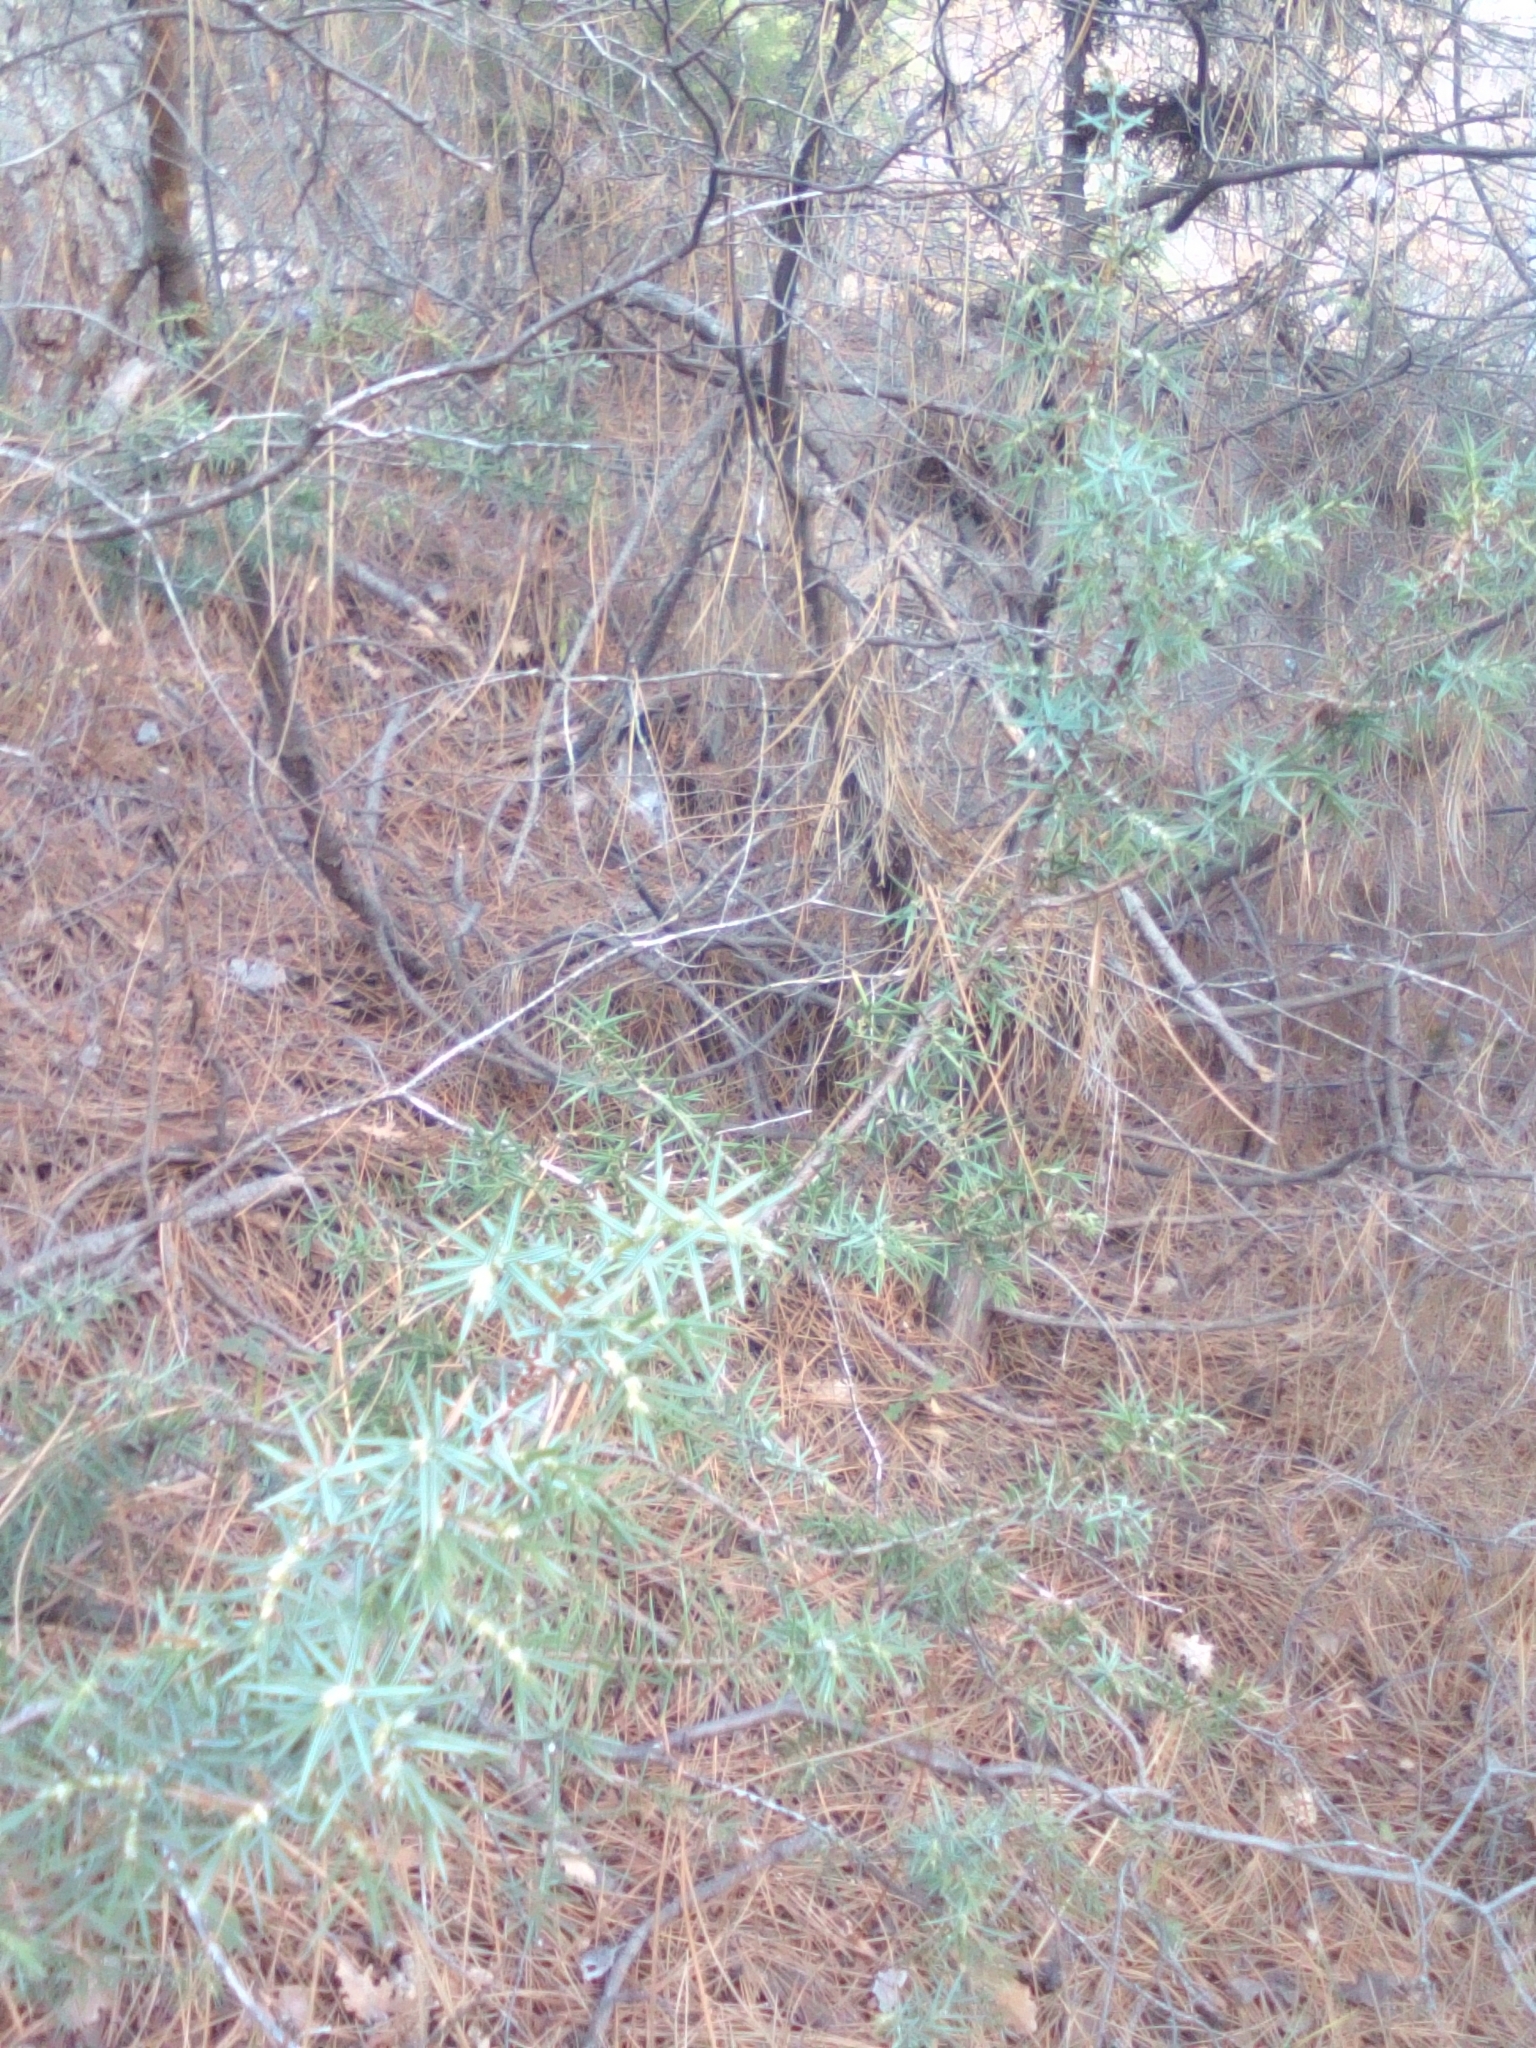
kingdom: Plantae
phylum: Tracheophyta
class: Pinopsida
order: Pinales
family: Cupressaceae
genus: Juniperus
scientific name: Juniperus oxycedrus
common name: Prickly juniper
